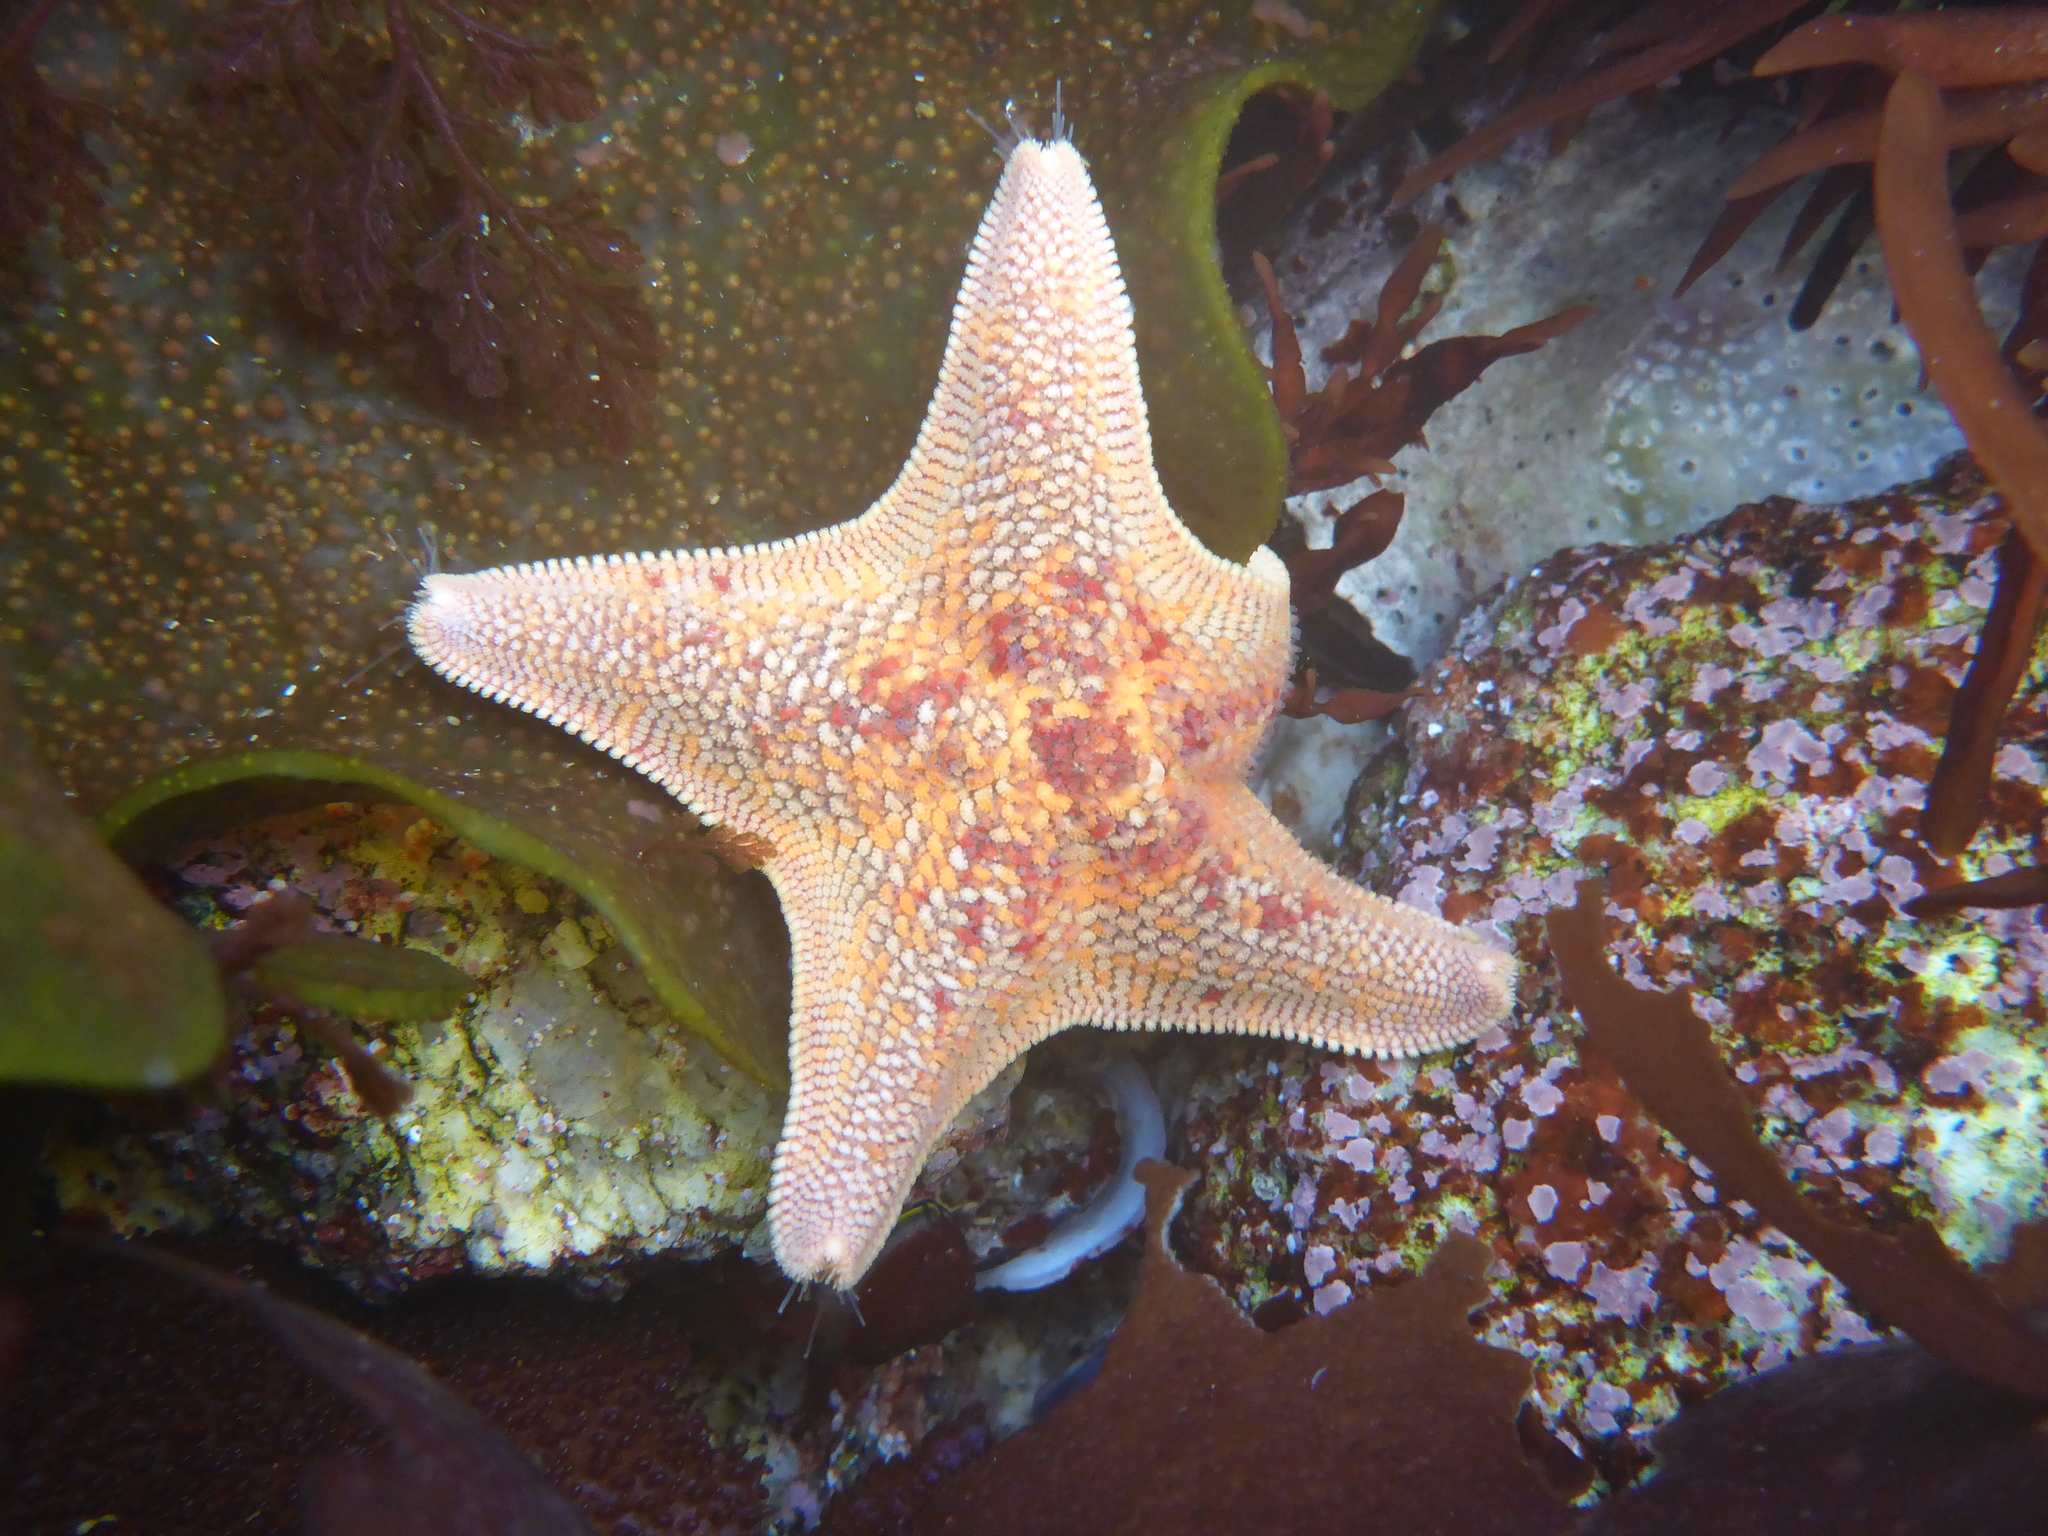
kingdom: Animalia
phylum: Echinodermata
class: Asteroidea
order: Valvatida
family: Asterinidae
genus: Patiria
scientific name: Patiria miniata
